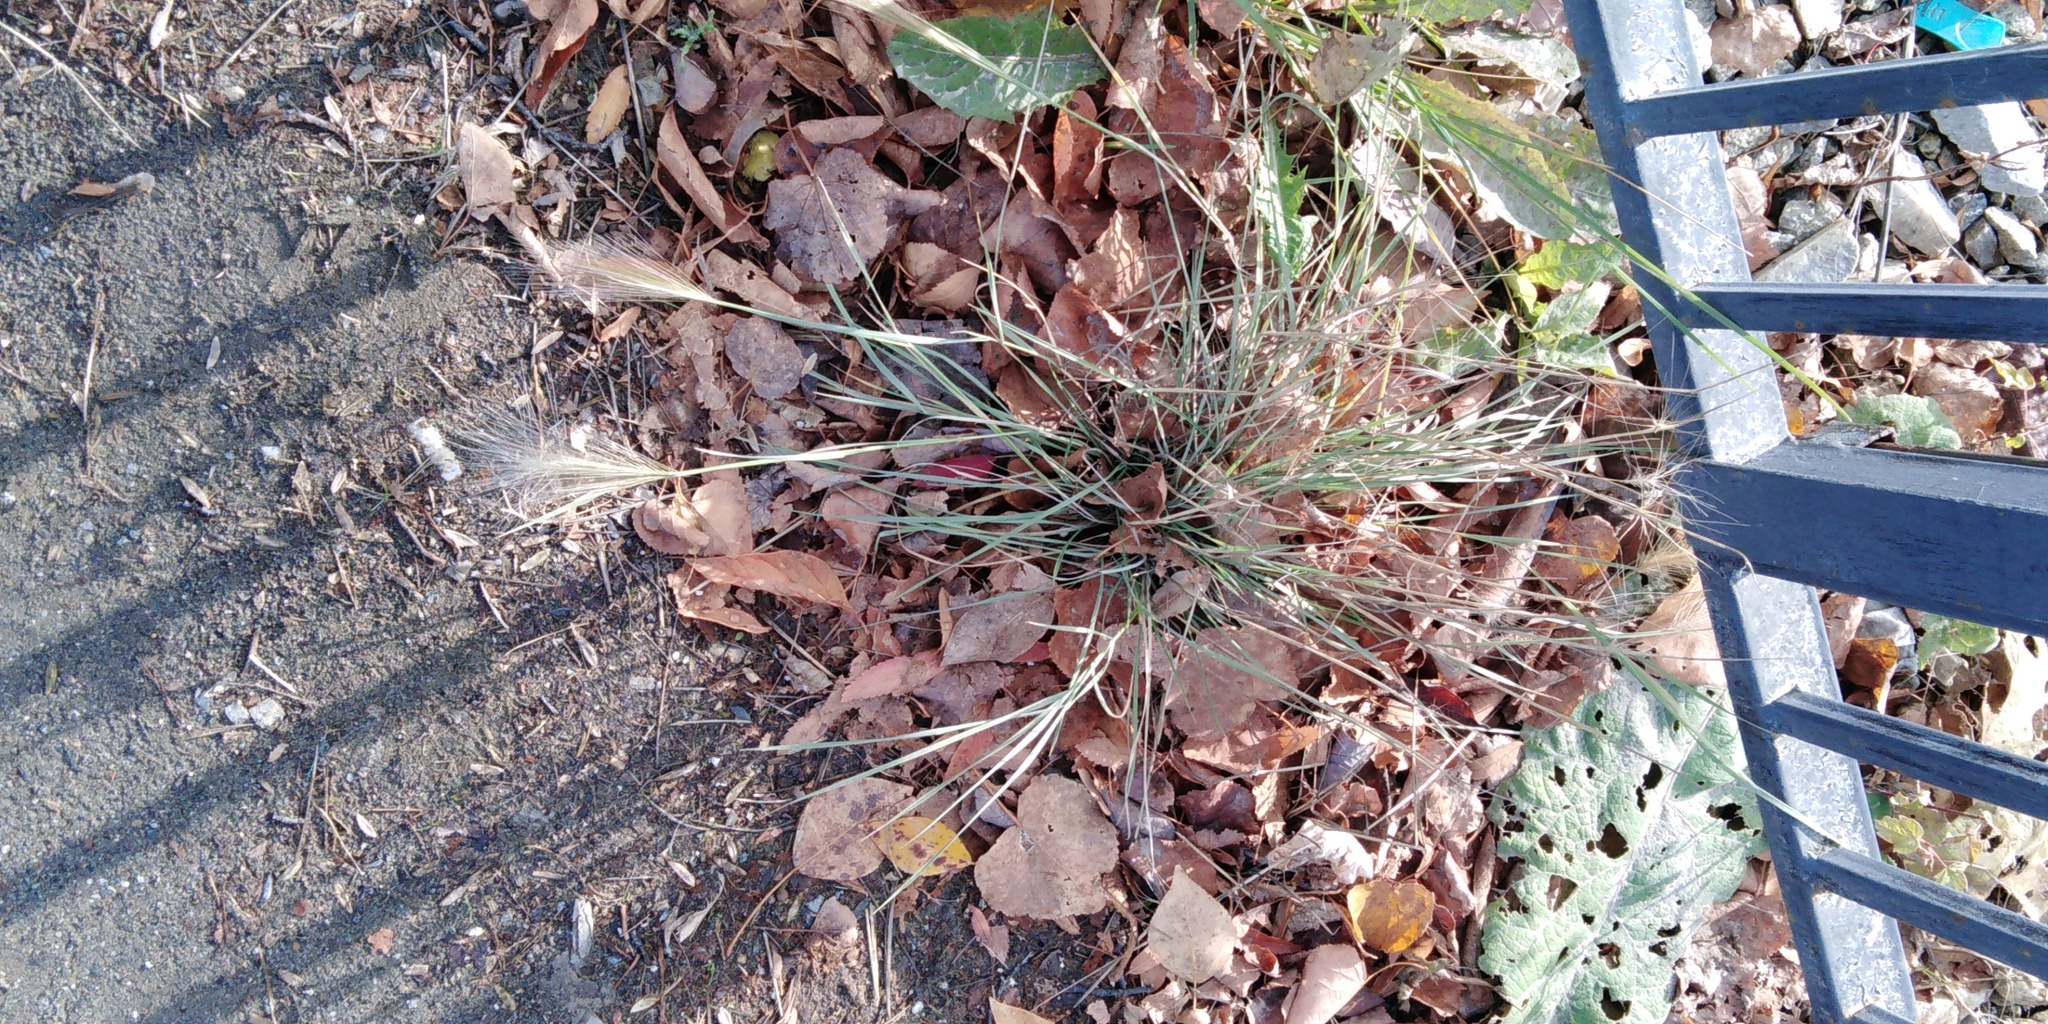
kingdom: Plantae
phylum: Tracheophyta
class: Liliopsida
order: Poales
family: Poaceae
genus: Hordeum
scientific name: Hordeum jubatum
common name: Foxtail barley
